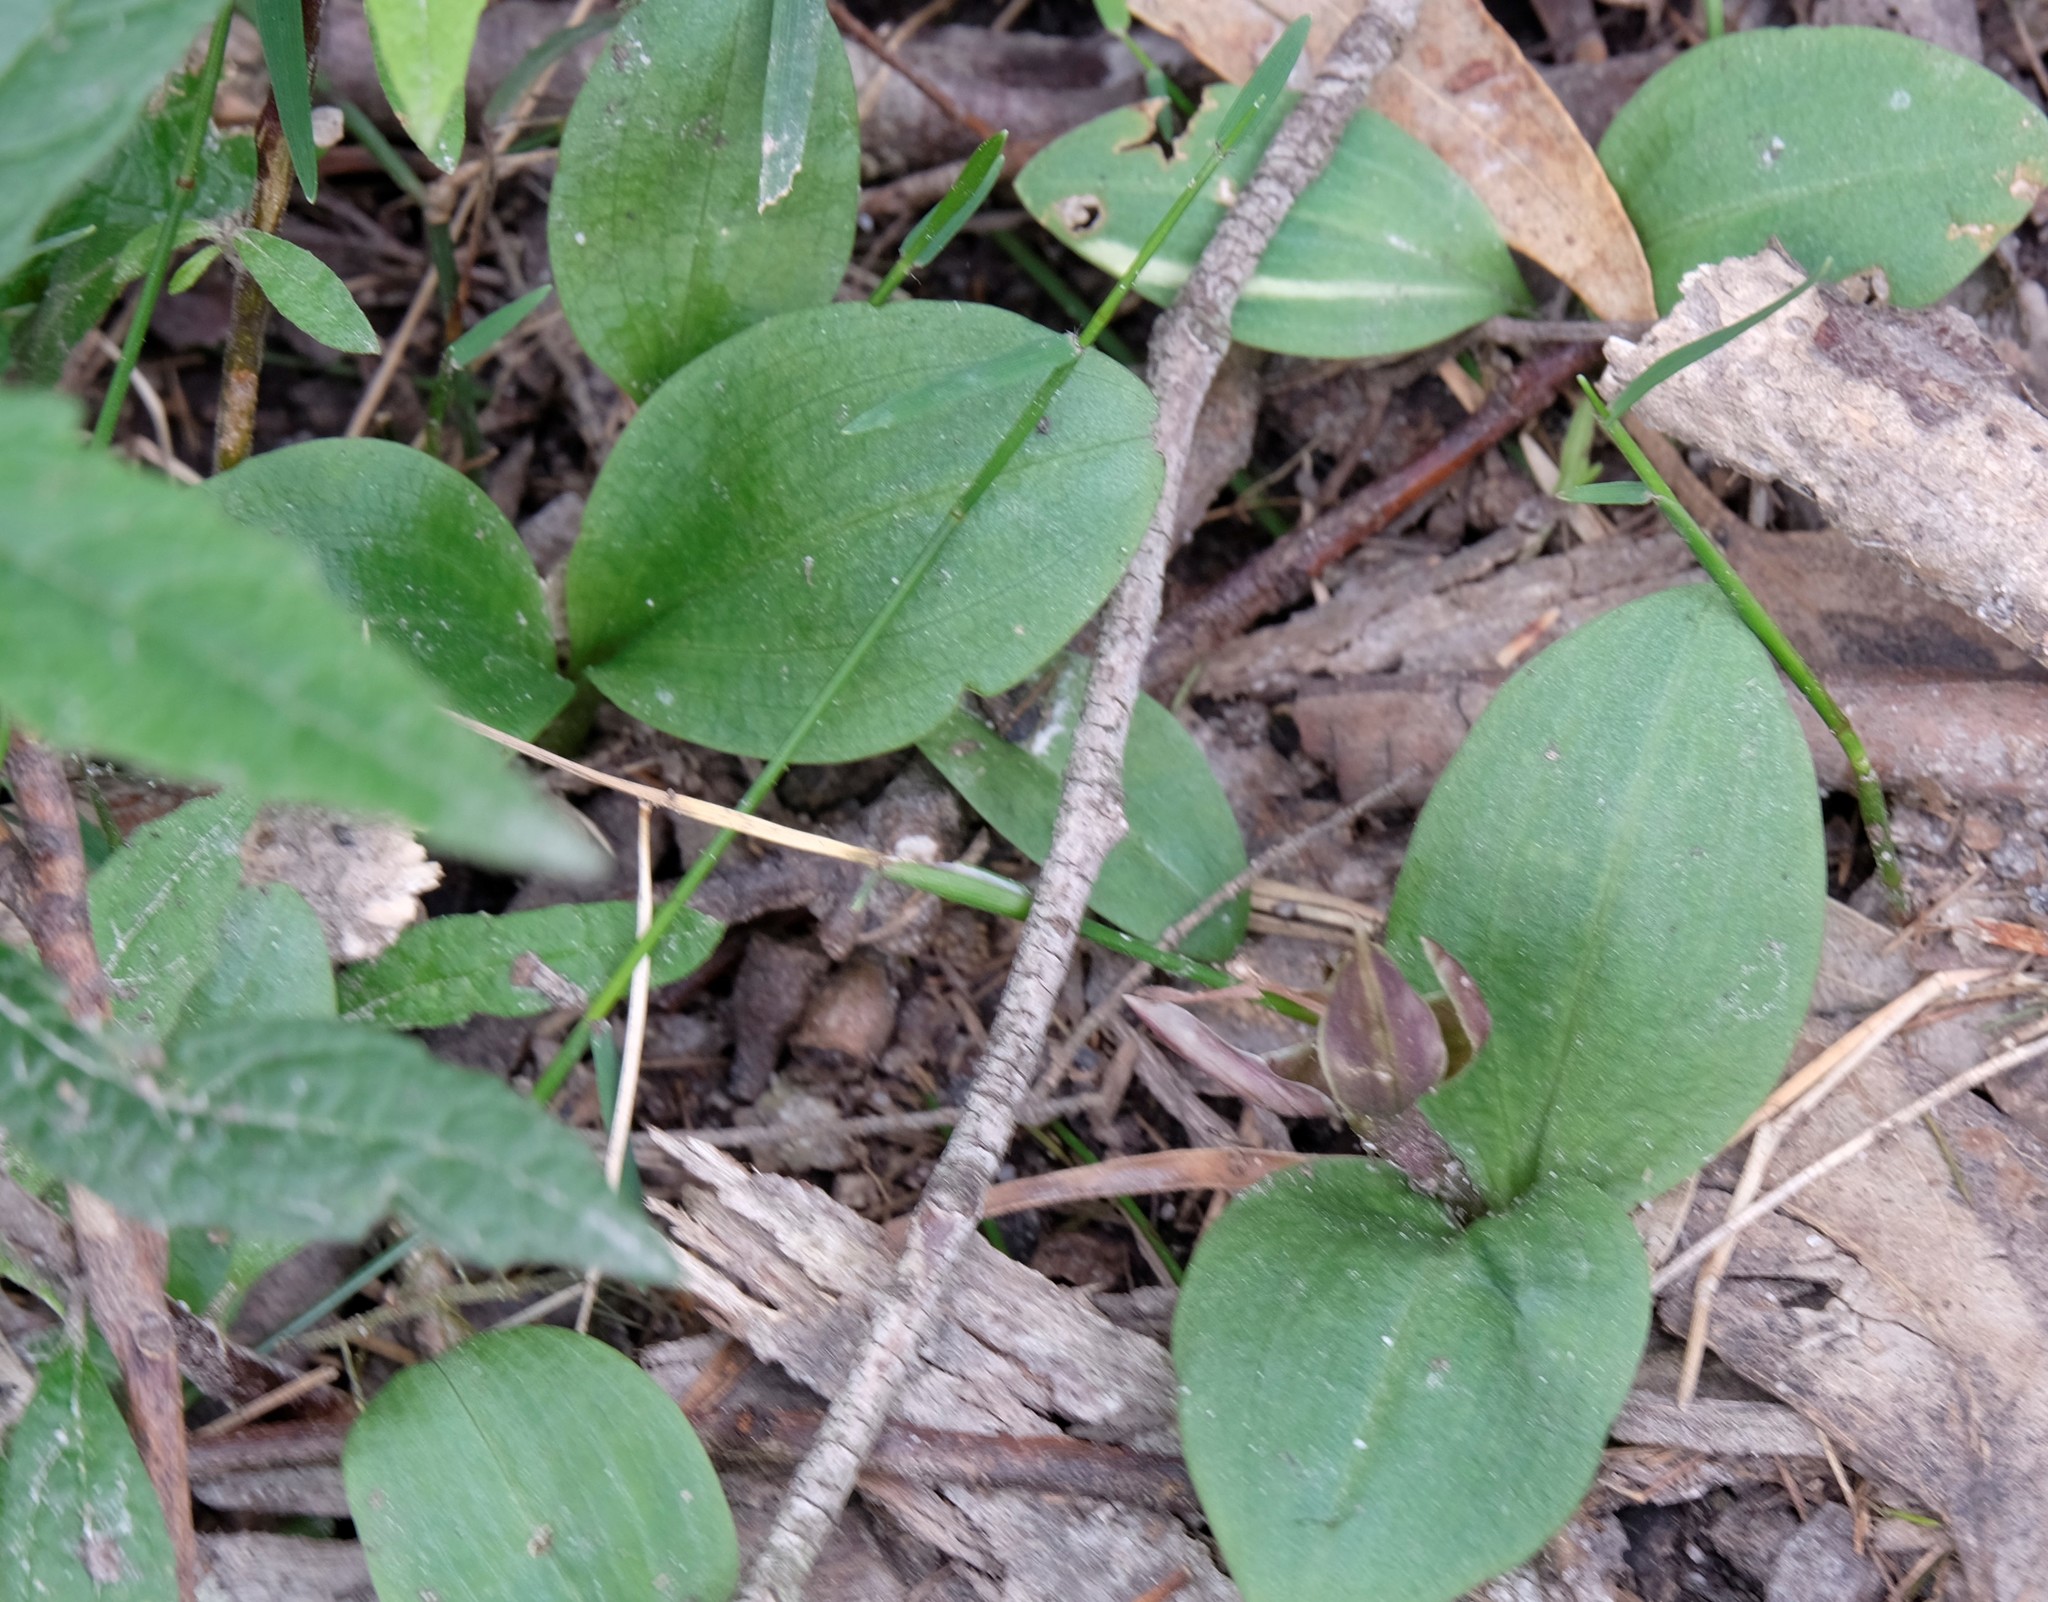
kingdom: Plantae
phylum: Tracheophyta
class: Liliopsida
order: Asparagales
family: Orchidaceae
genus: Chiloglottis
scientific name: Chiloglottis valida
